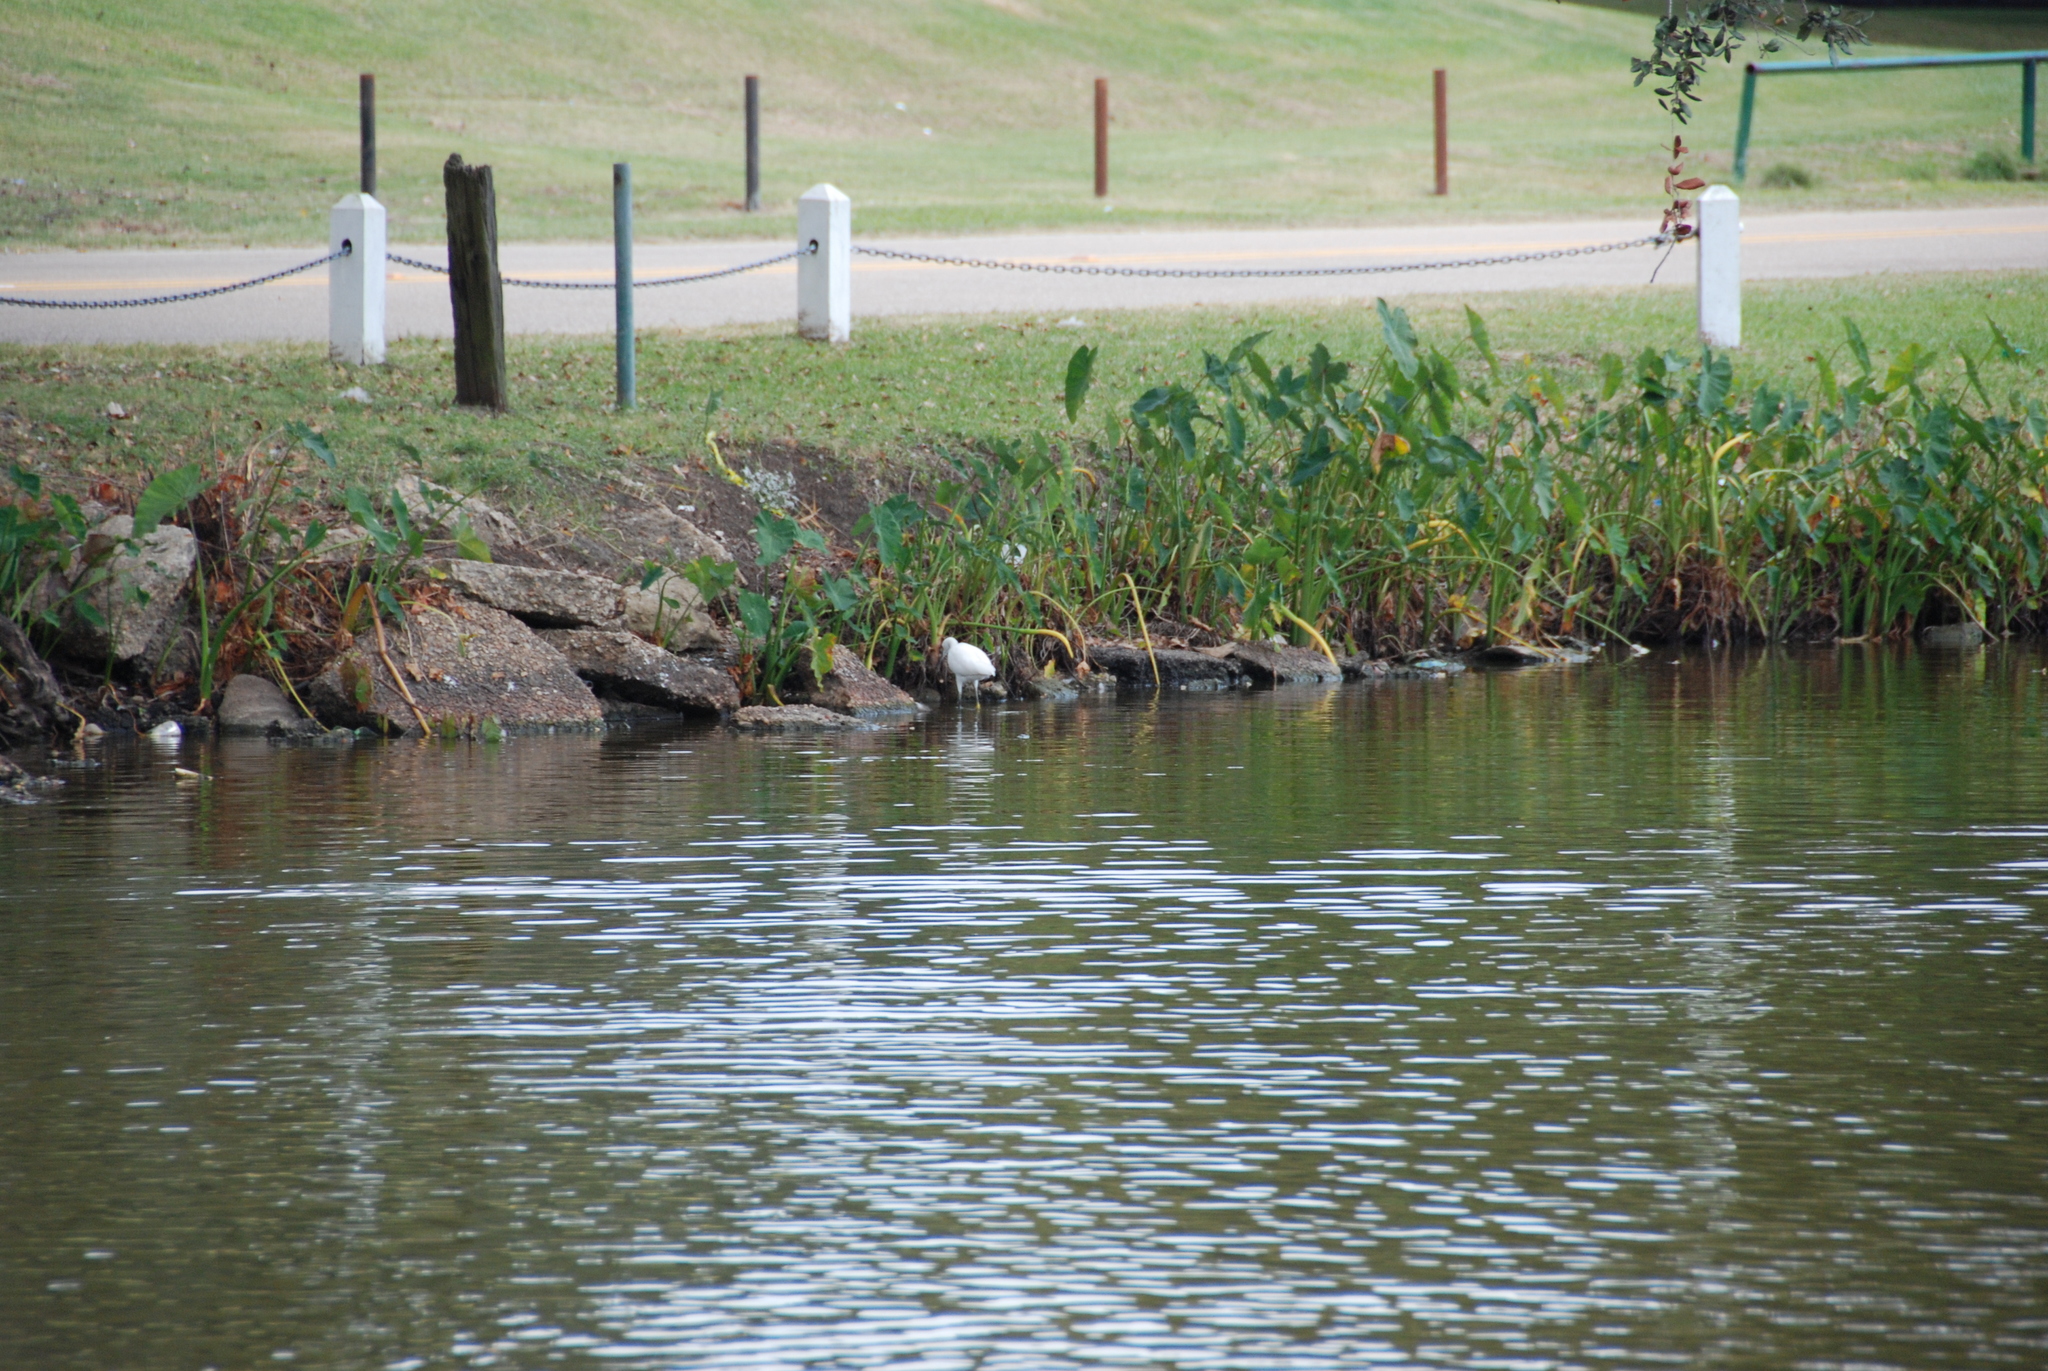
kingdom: Animalia
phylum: Chordata
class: Aves
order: Pelecaniformes
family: Ardeidae
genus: Egretta
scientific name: Egretta thula
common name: Snowy egret
